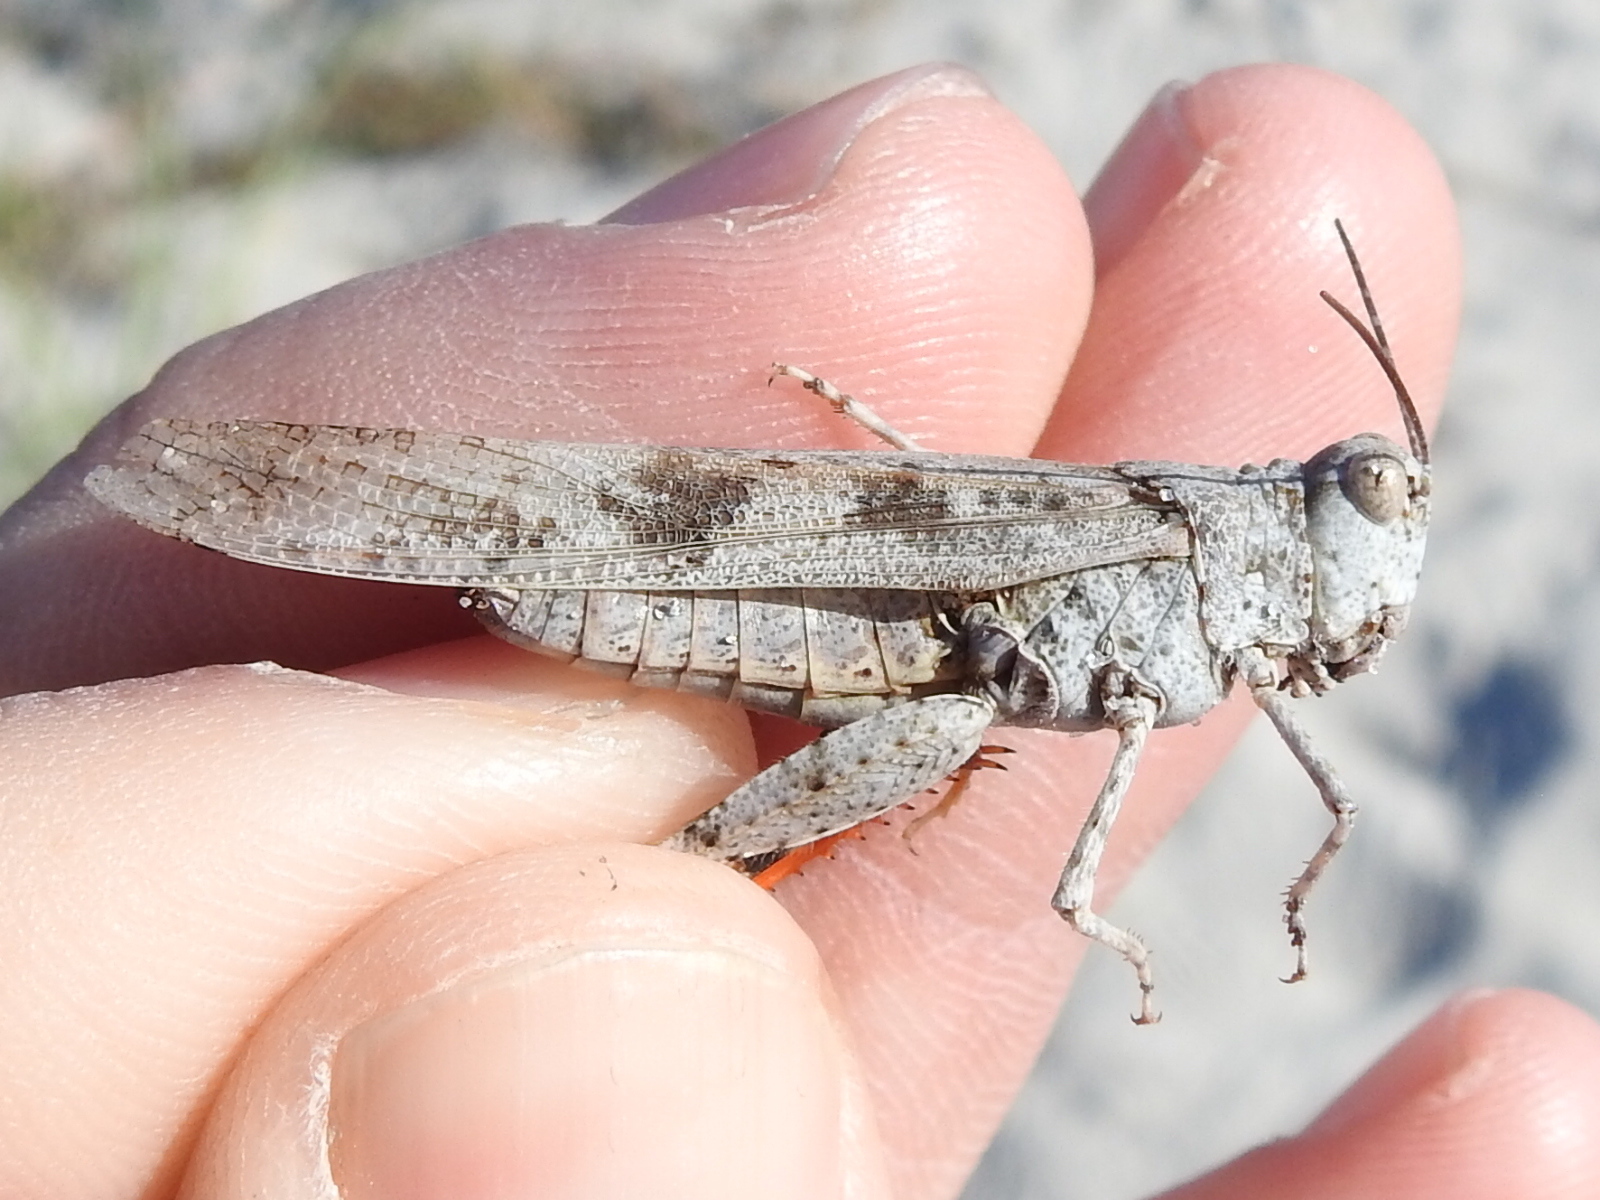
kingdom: Animalia
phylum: Arthropoda
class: Insecta
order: Orthoptera
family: Acrididae
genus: Trimerotropis
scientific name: Trimerotropis maritima
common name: Seaside locust
